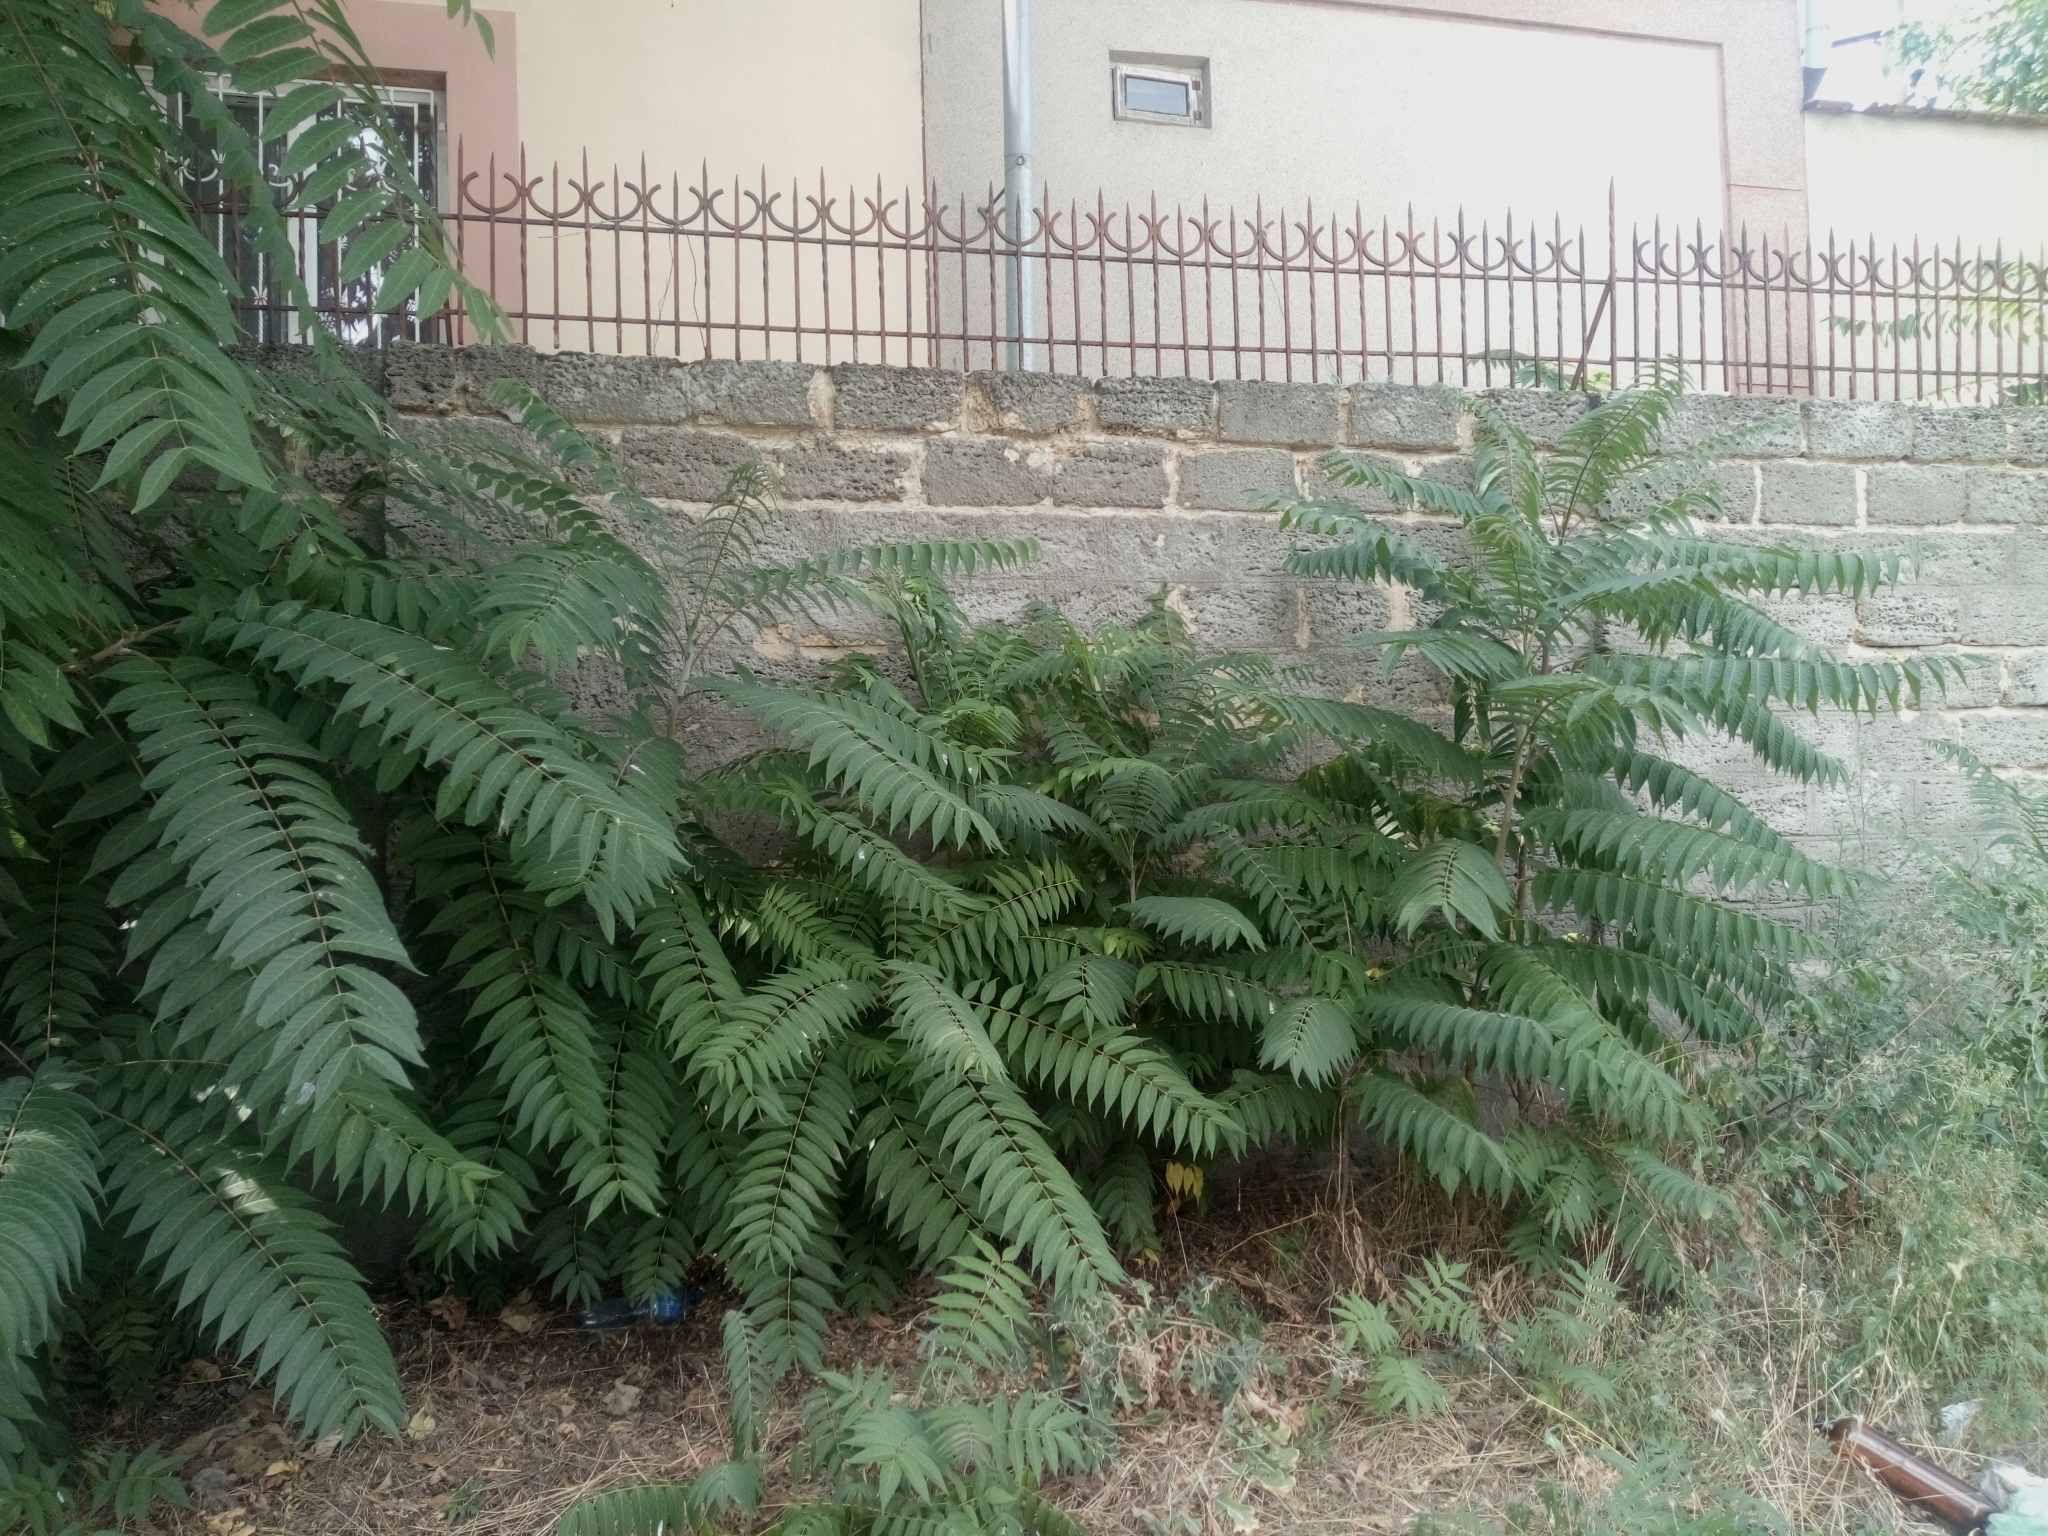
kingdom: Plantae
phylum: Tracheophyta
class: Magnoliopsida
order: Sapindales
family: Simaroubaceae
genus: Ailanthus
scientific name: Ailanthus altissima
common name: Tree-of-heaven
